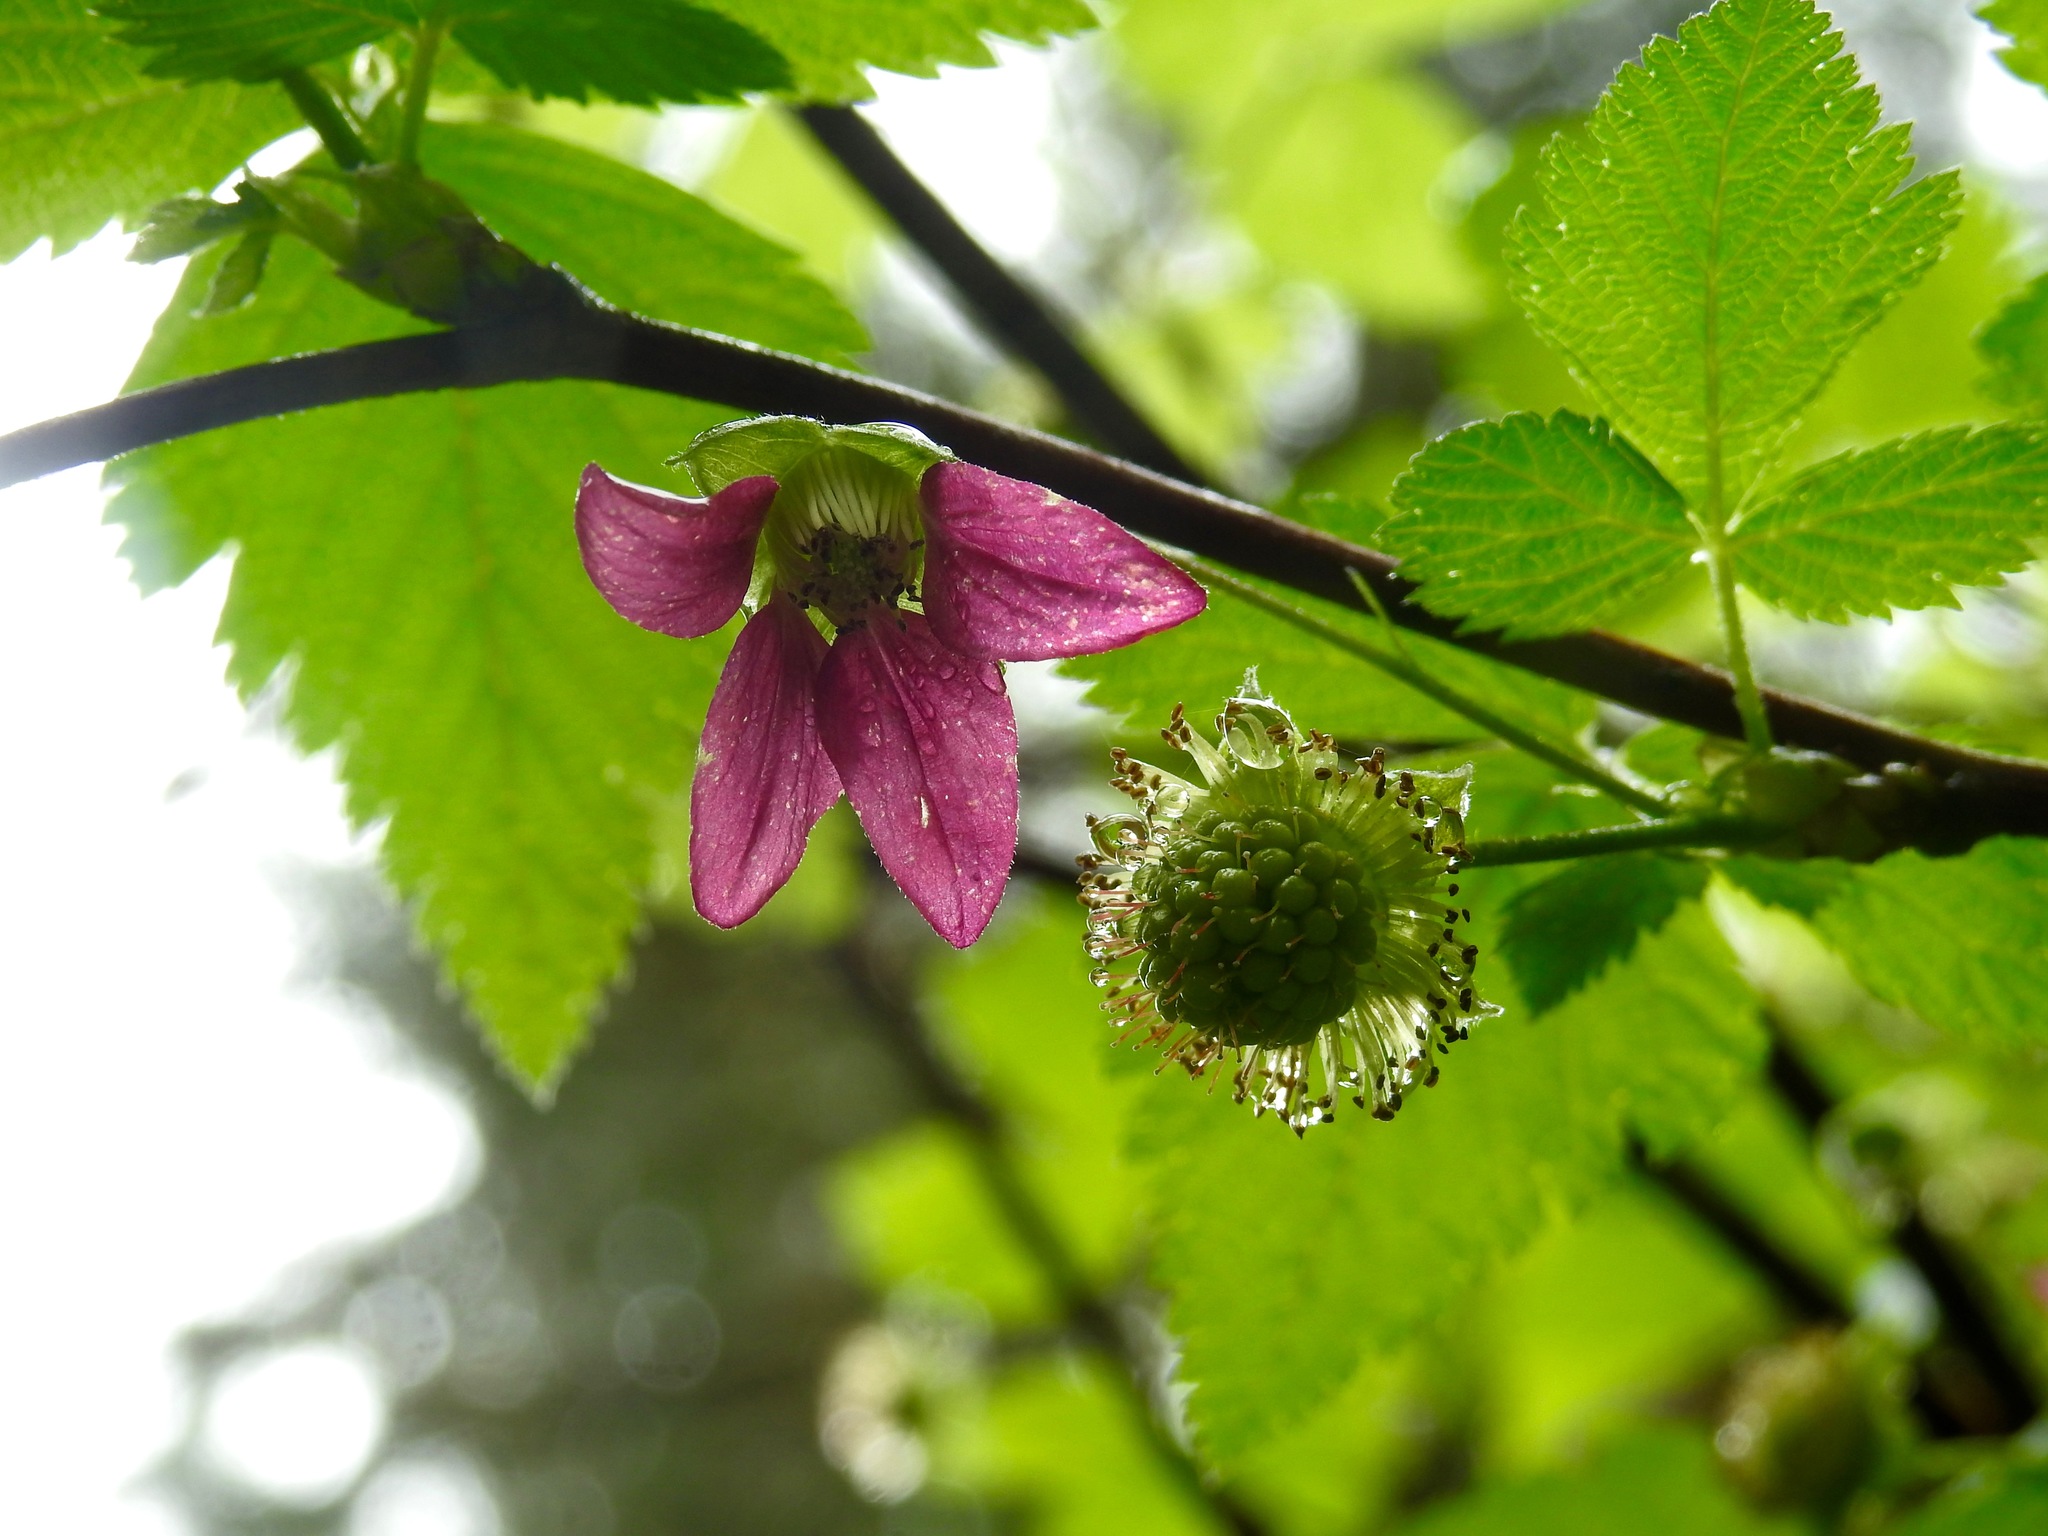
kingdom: Plantae
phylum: Tracheophyta
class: Magnoliopsida
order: Rosales
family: Rosaceae
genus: Rubus
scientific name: Rubus spectabilis
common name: Salmonberry
